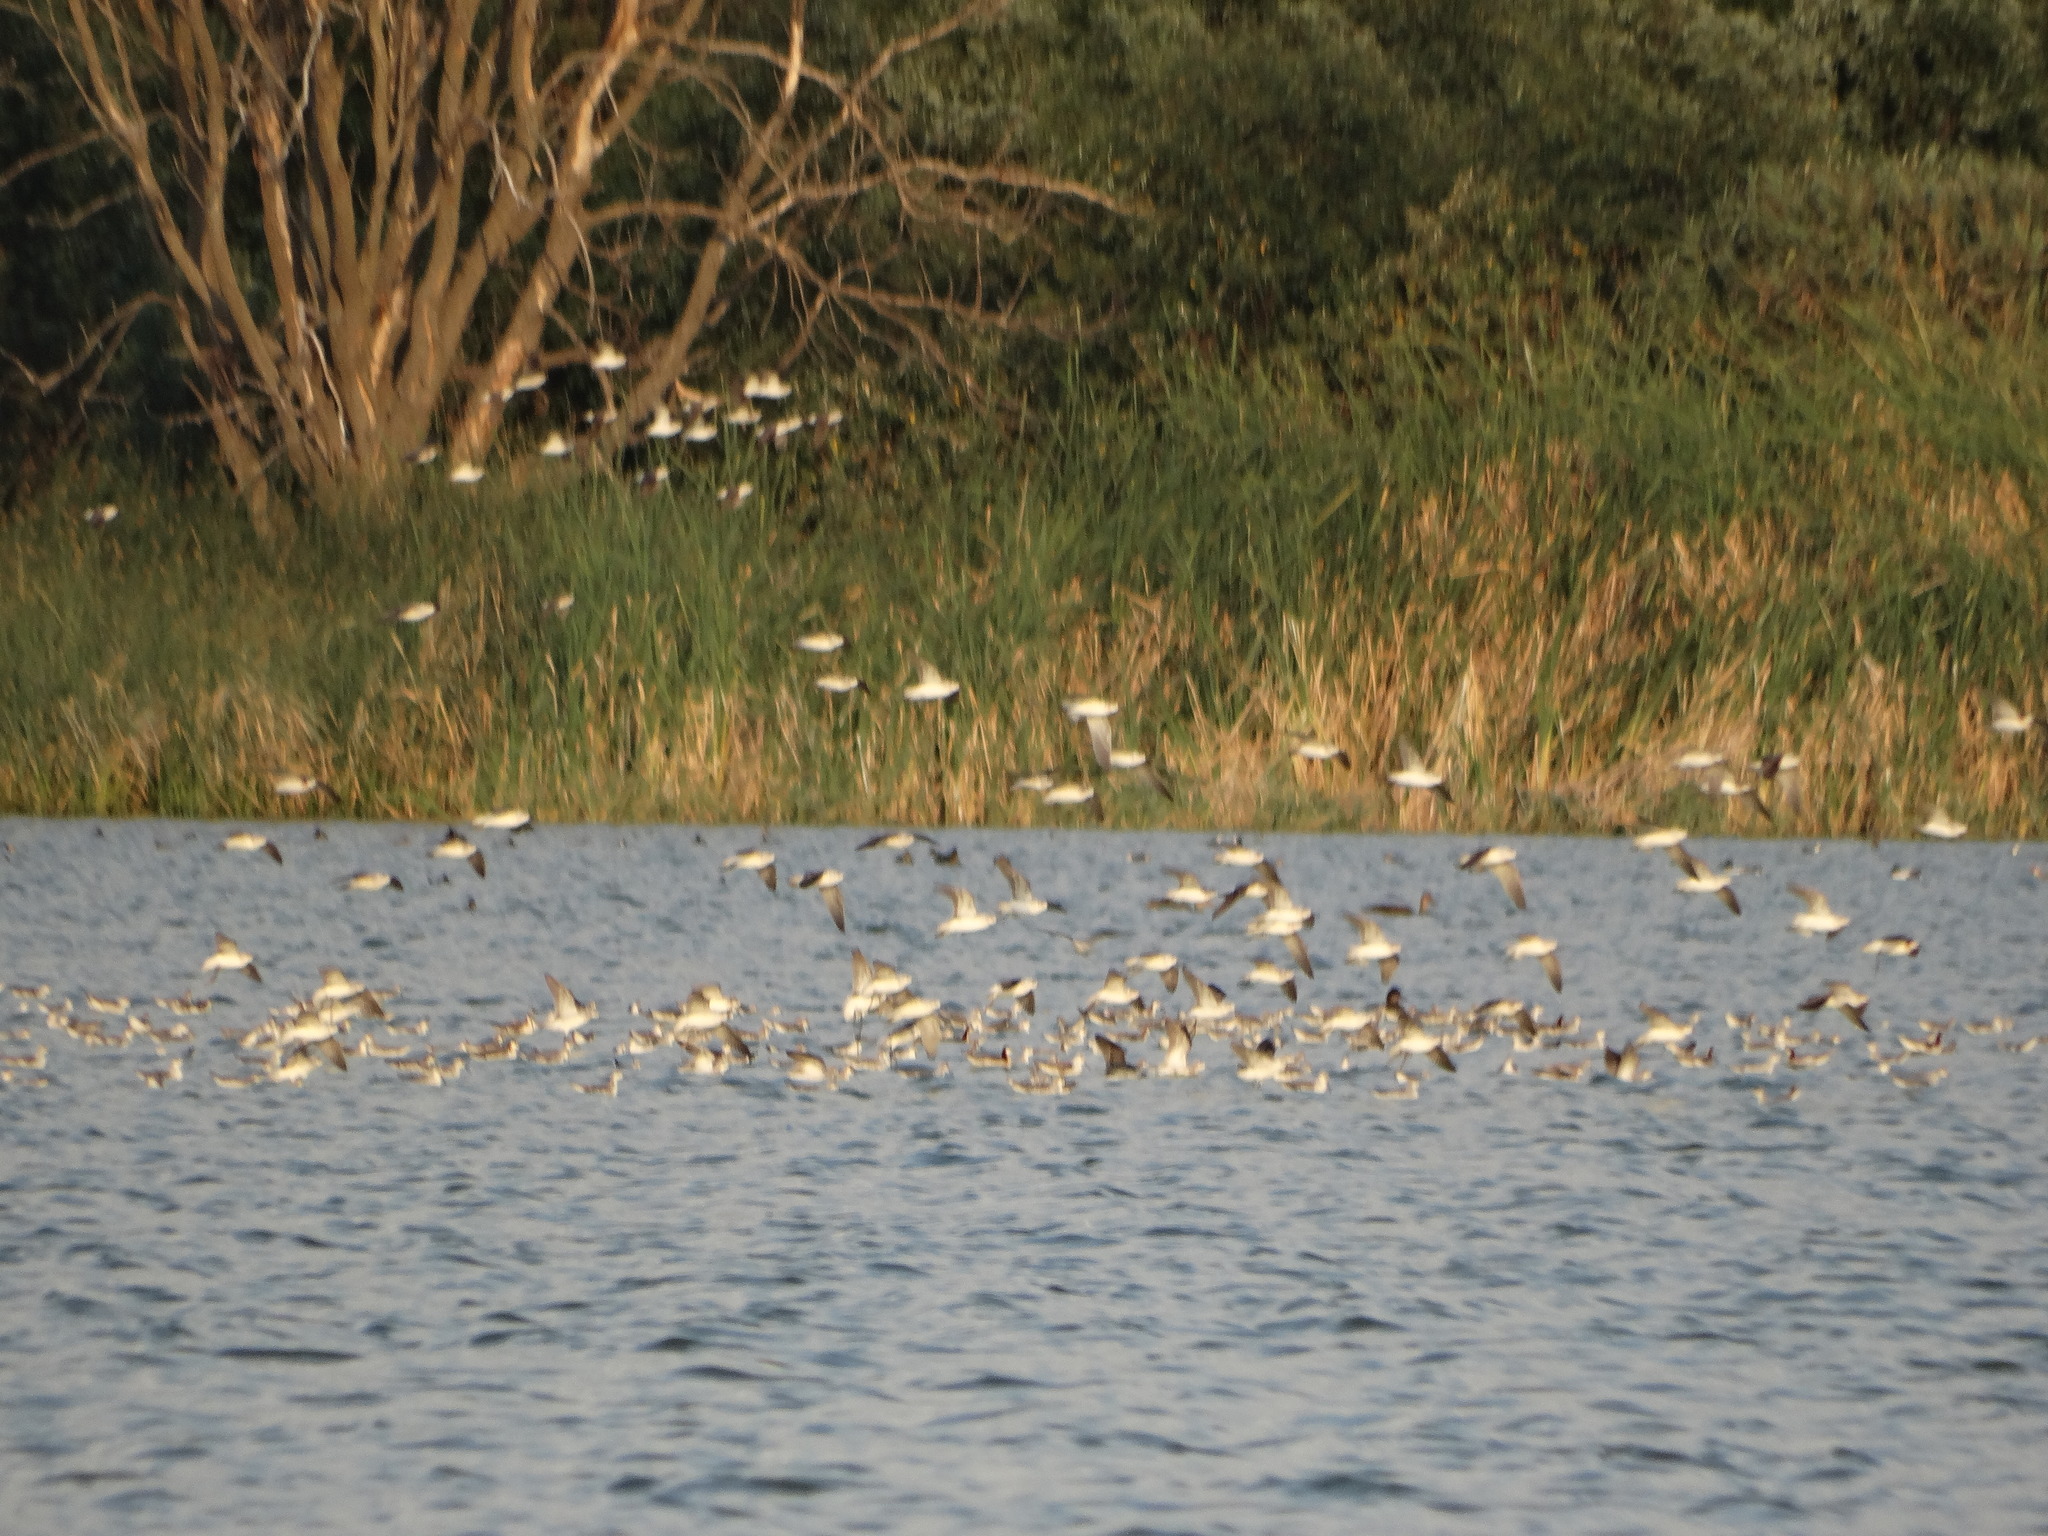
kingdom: Animalia
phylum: Chordata
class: Aves
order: Charadriiformes
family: Scolopacidae
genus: Phalaropus
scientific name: Phalaropus tricolor
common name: Wilson's phalarope
